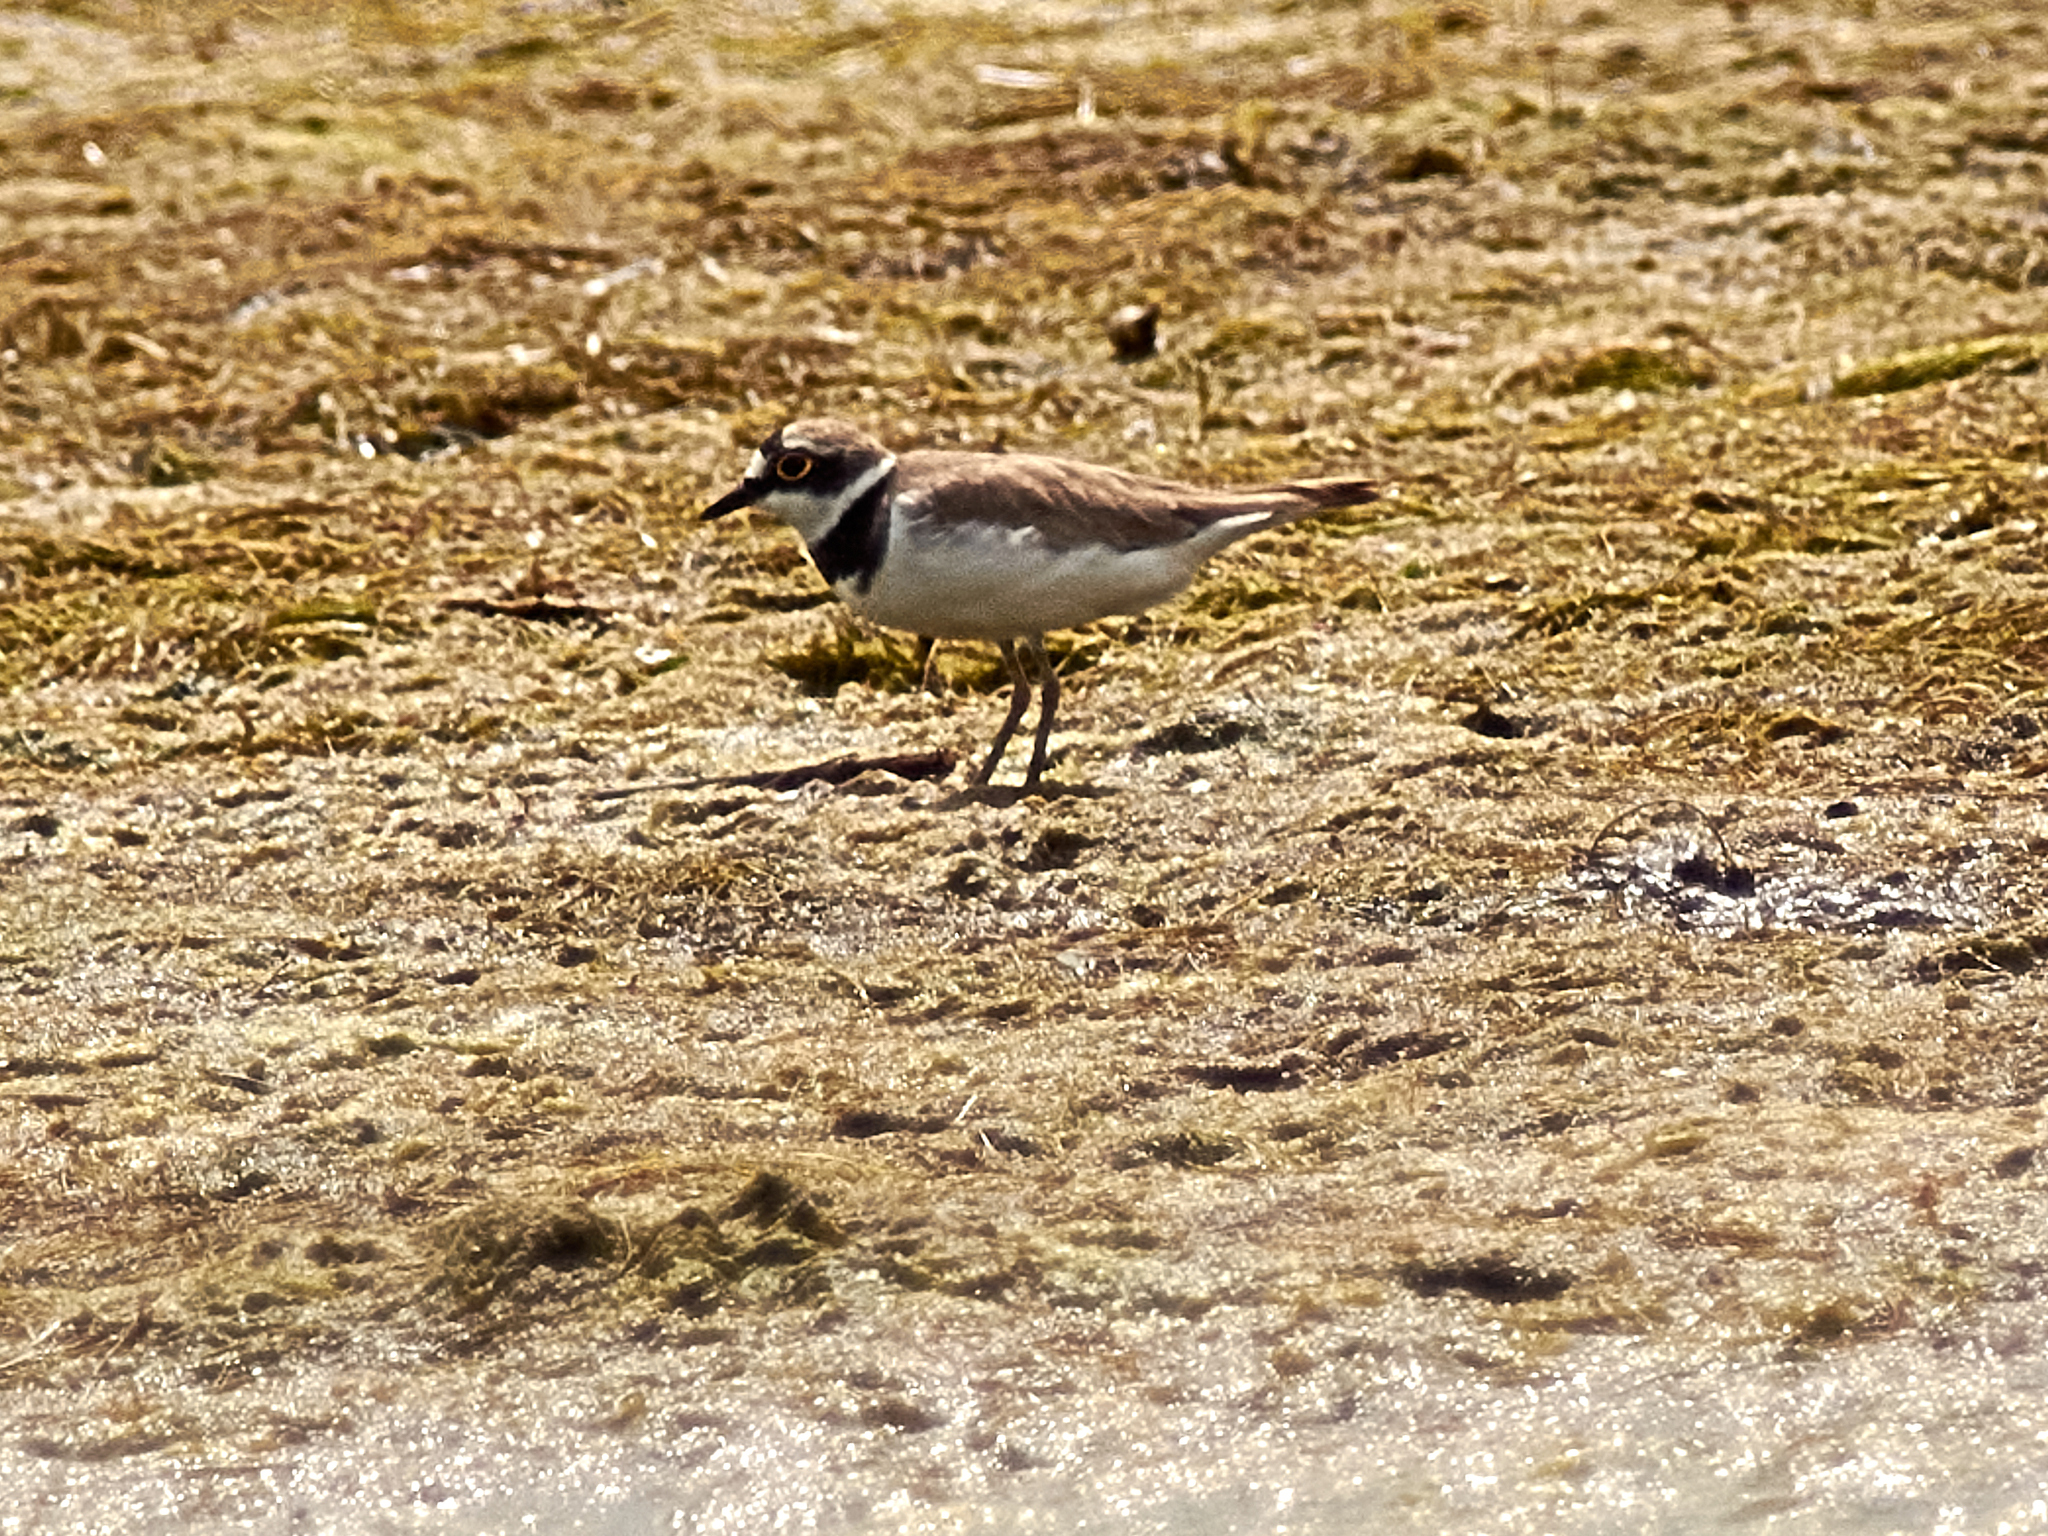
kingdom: Animalia
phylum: Chordata
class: Aves
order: Charadriiformes
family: Charadriidae
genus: Charadrius
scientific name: Charadrius dubius
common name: Little ringed plover
